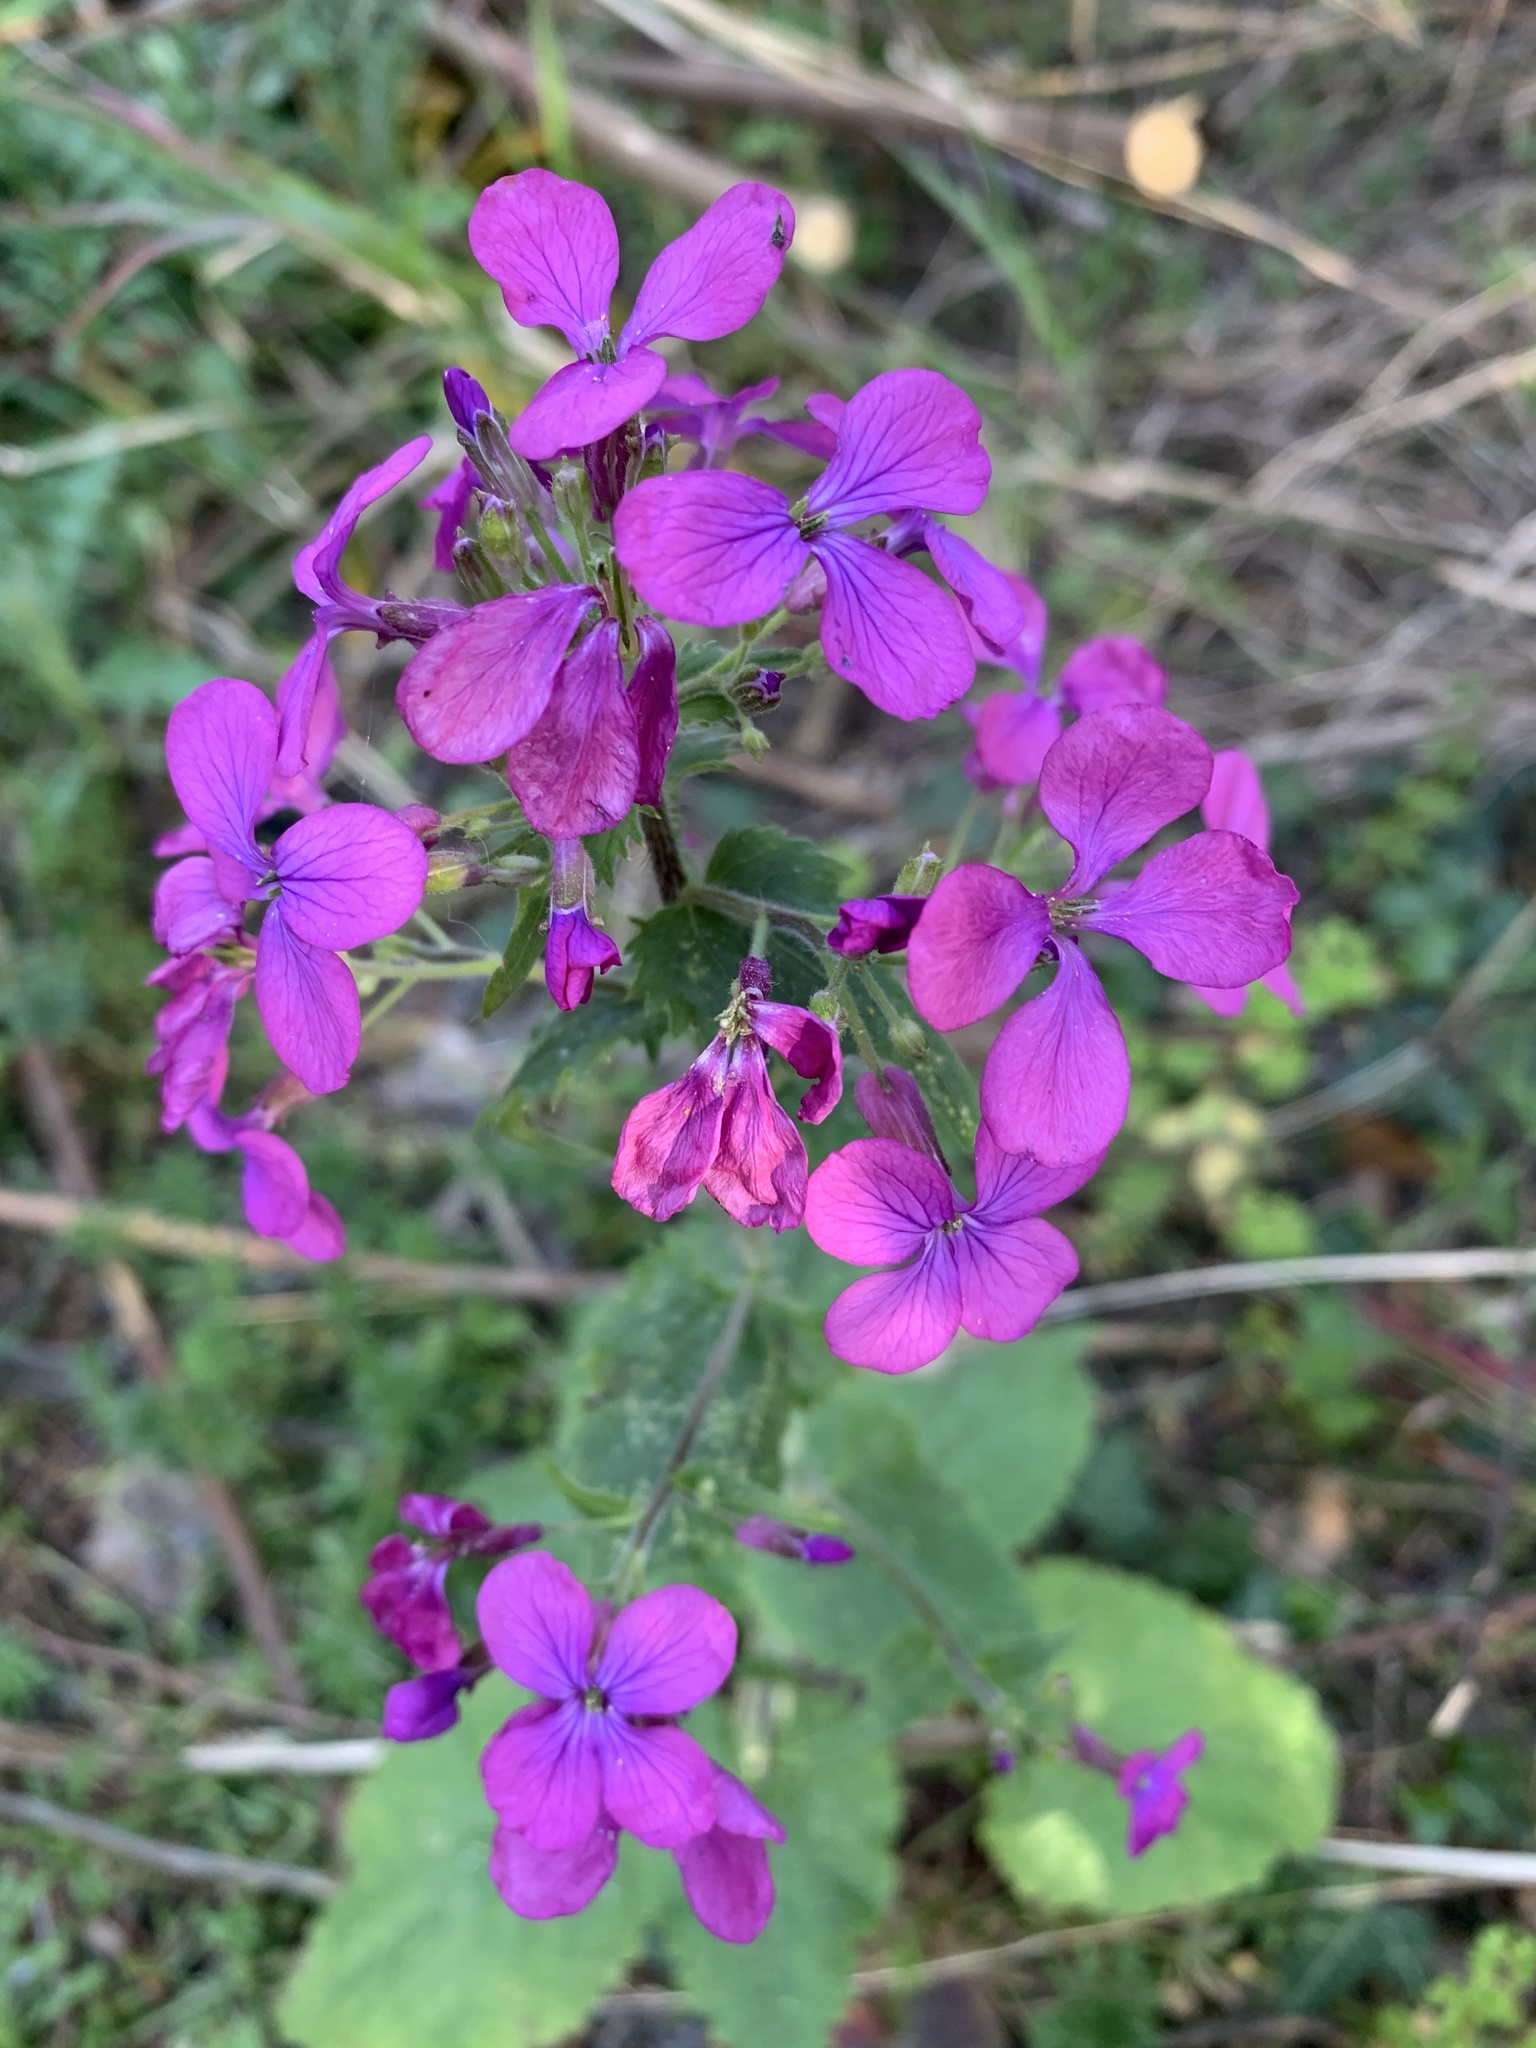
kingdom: Plantae
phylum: Tracheophyta
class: Magnoliopsida
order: Brassicales
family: Brassicaceae
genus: Lunaria
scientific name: Lunaria annua
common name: Honesty
